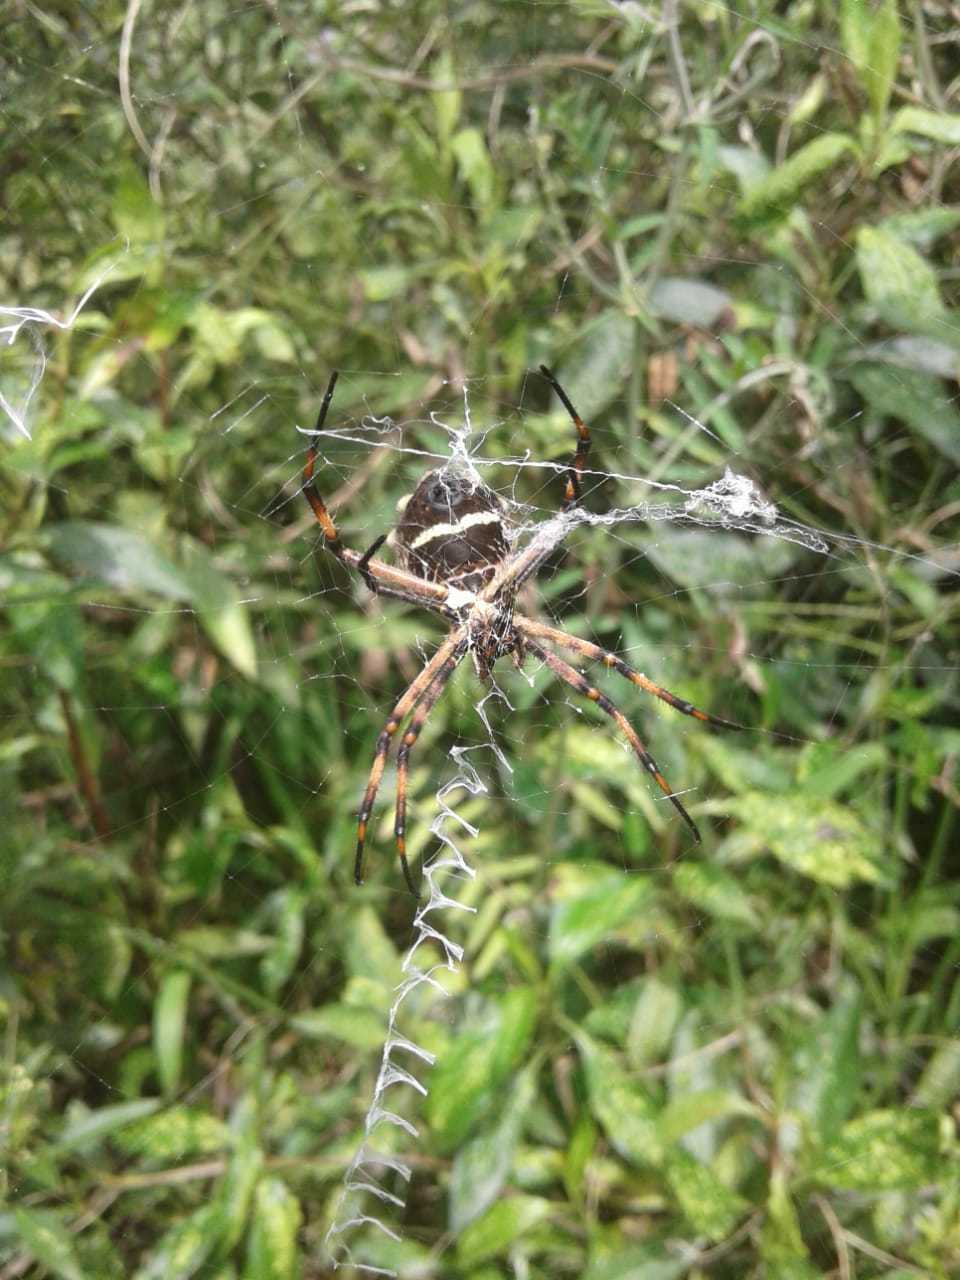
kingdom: Animalia
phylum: Arthropoda
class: Arachnida
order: Araneae
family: Araneidae
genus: Argiope
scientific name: Argiope argentata
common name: Orb weavers
